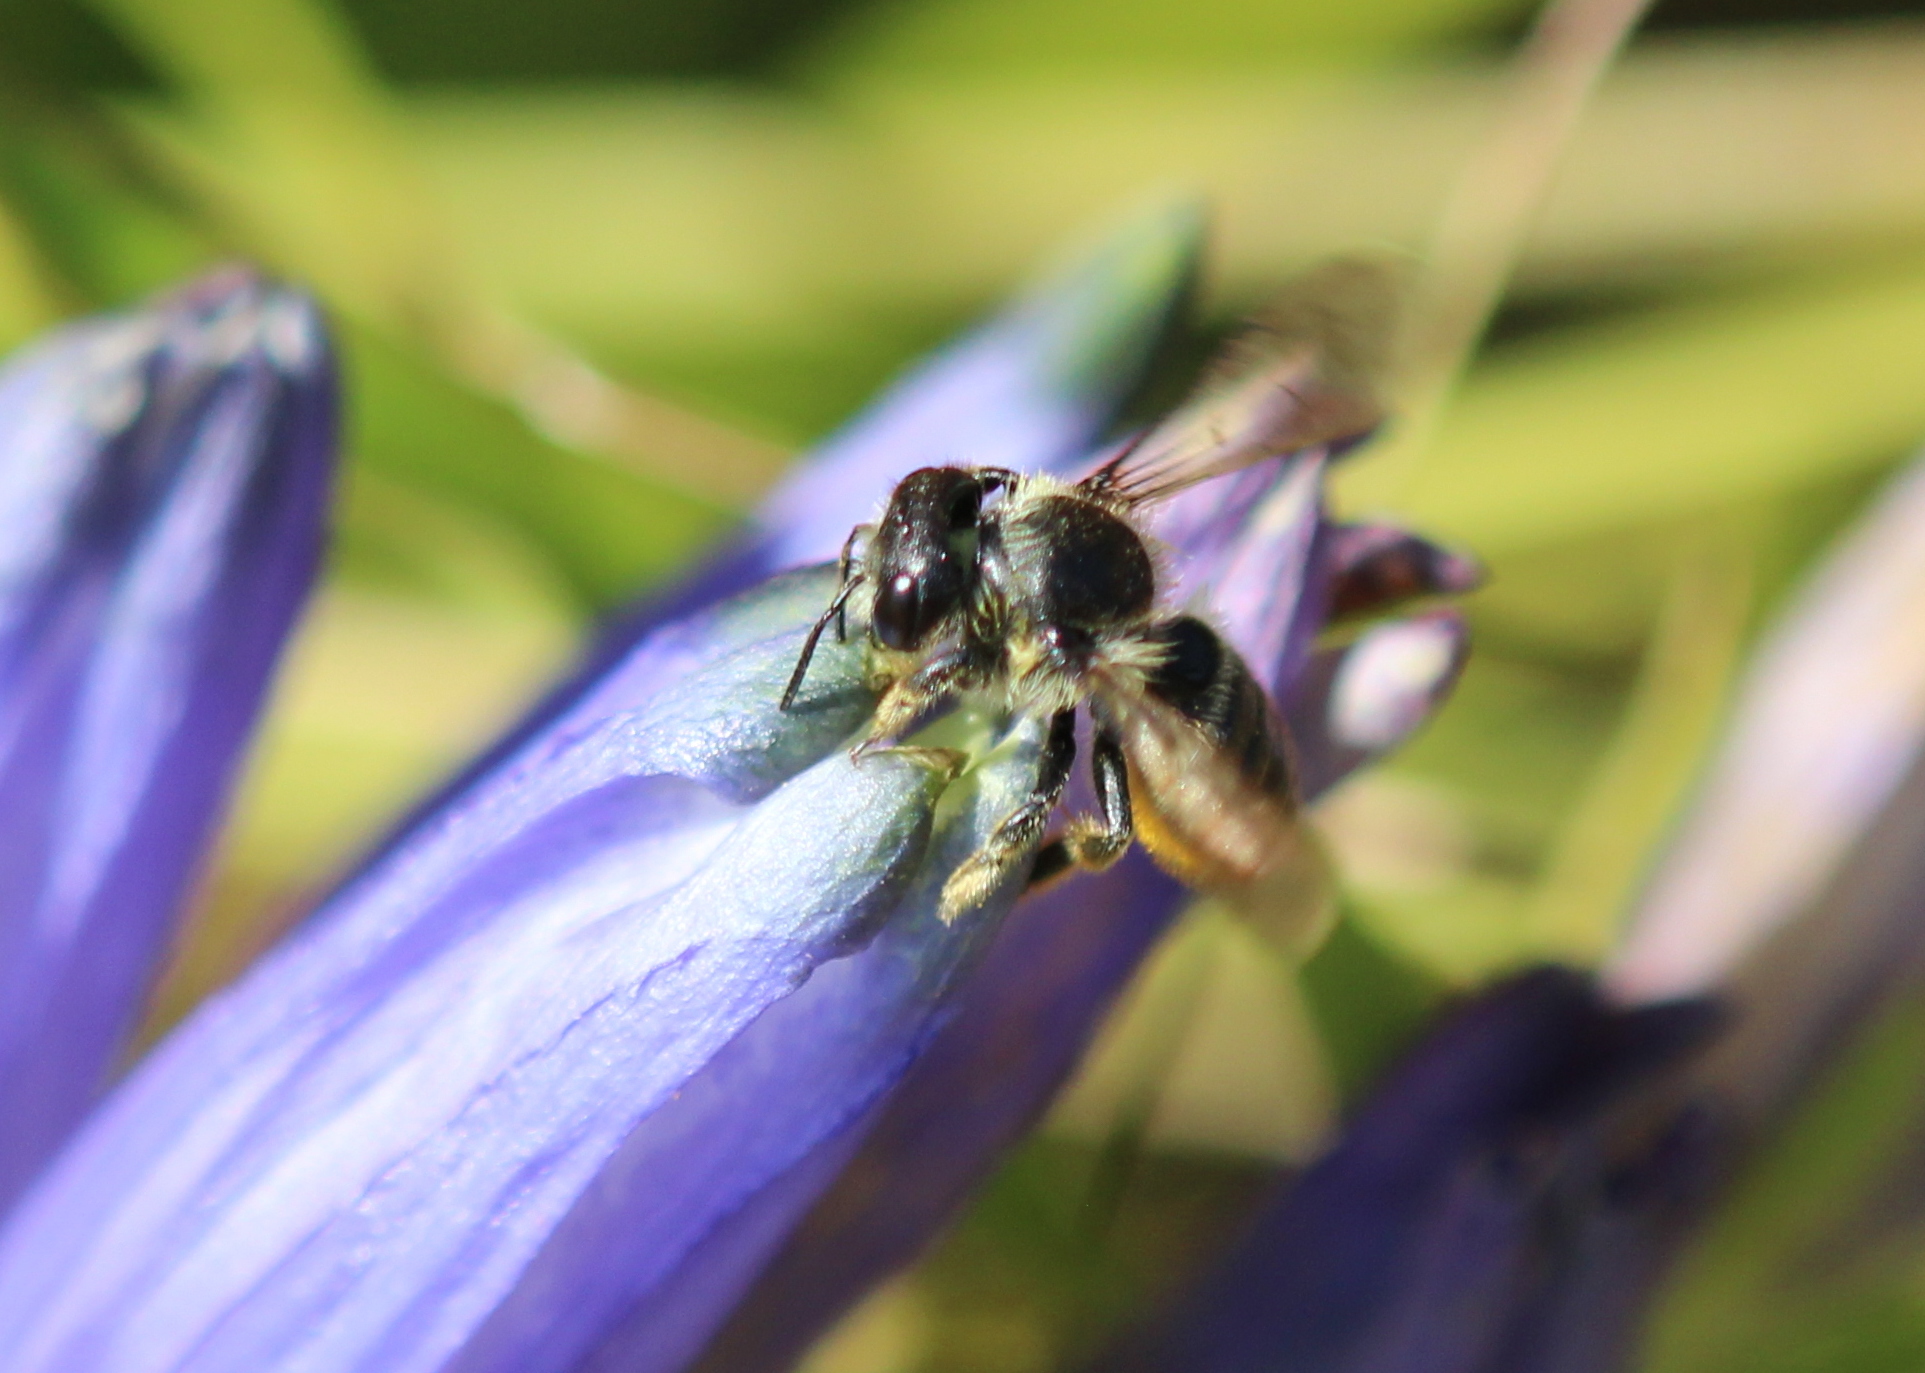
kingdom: Animalia
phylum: Arthropoda
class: Insecta
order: Hymenoptera
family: Megachilidae
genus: Megachile
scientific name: Megachile relativa
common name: Golden-tailed leafcutter
